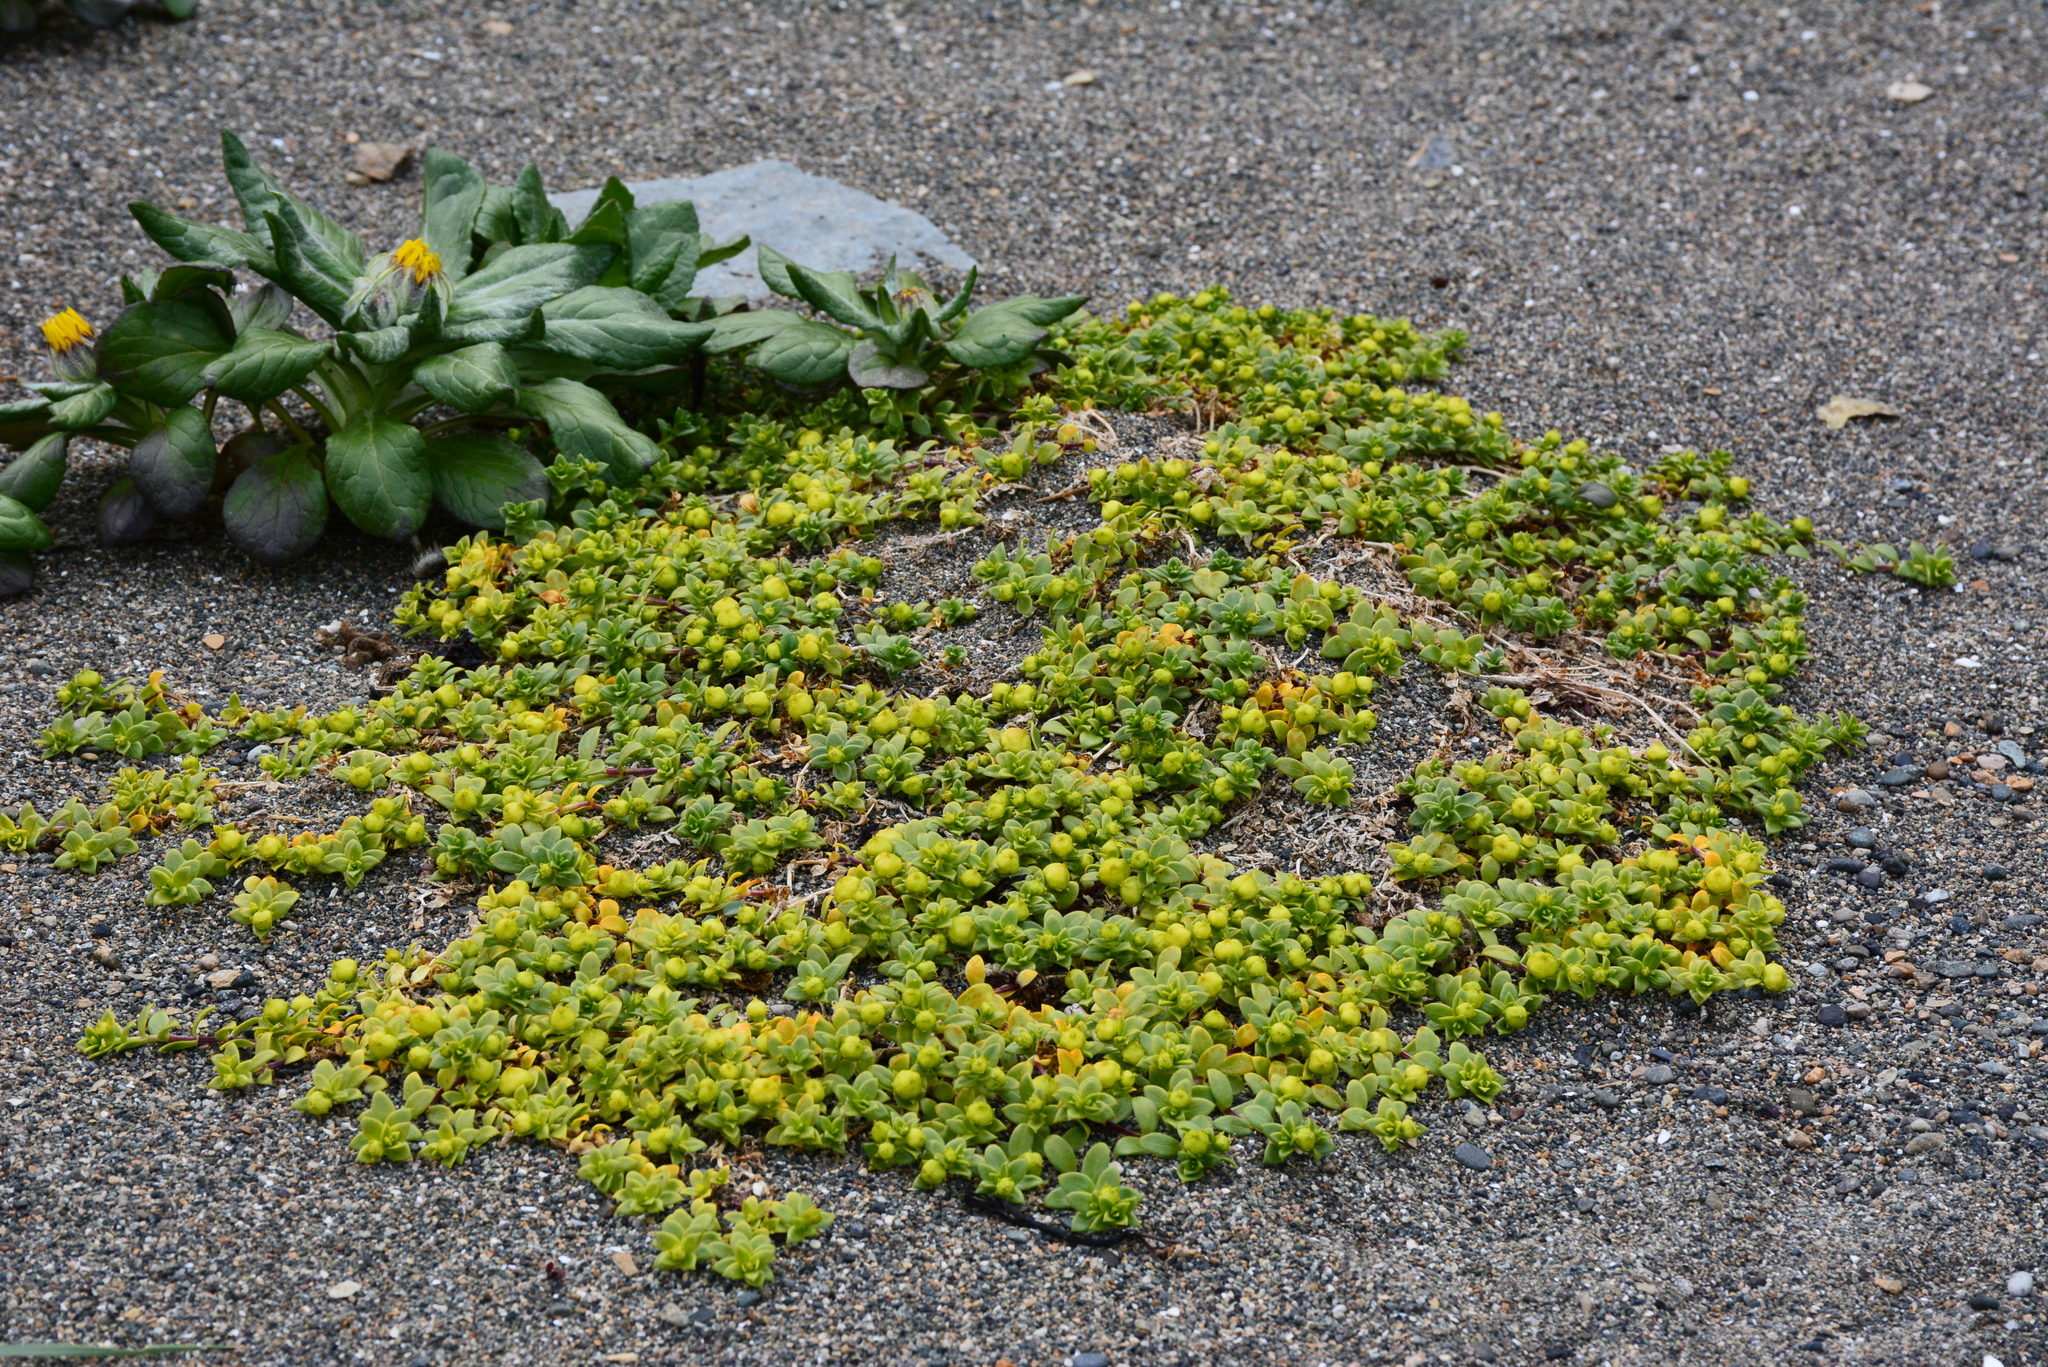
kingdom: Plantae
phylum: Tracheophyta
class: Magnoliopsida
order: Caryophyllales
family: Caryophyllaceae
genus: Honckenya
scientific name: Honckenya peploides
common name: Sea sandwort
